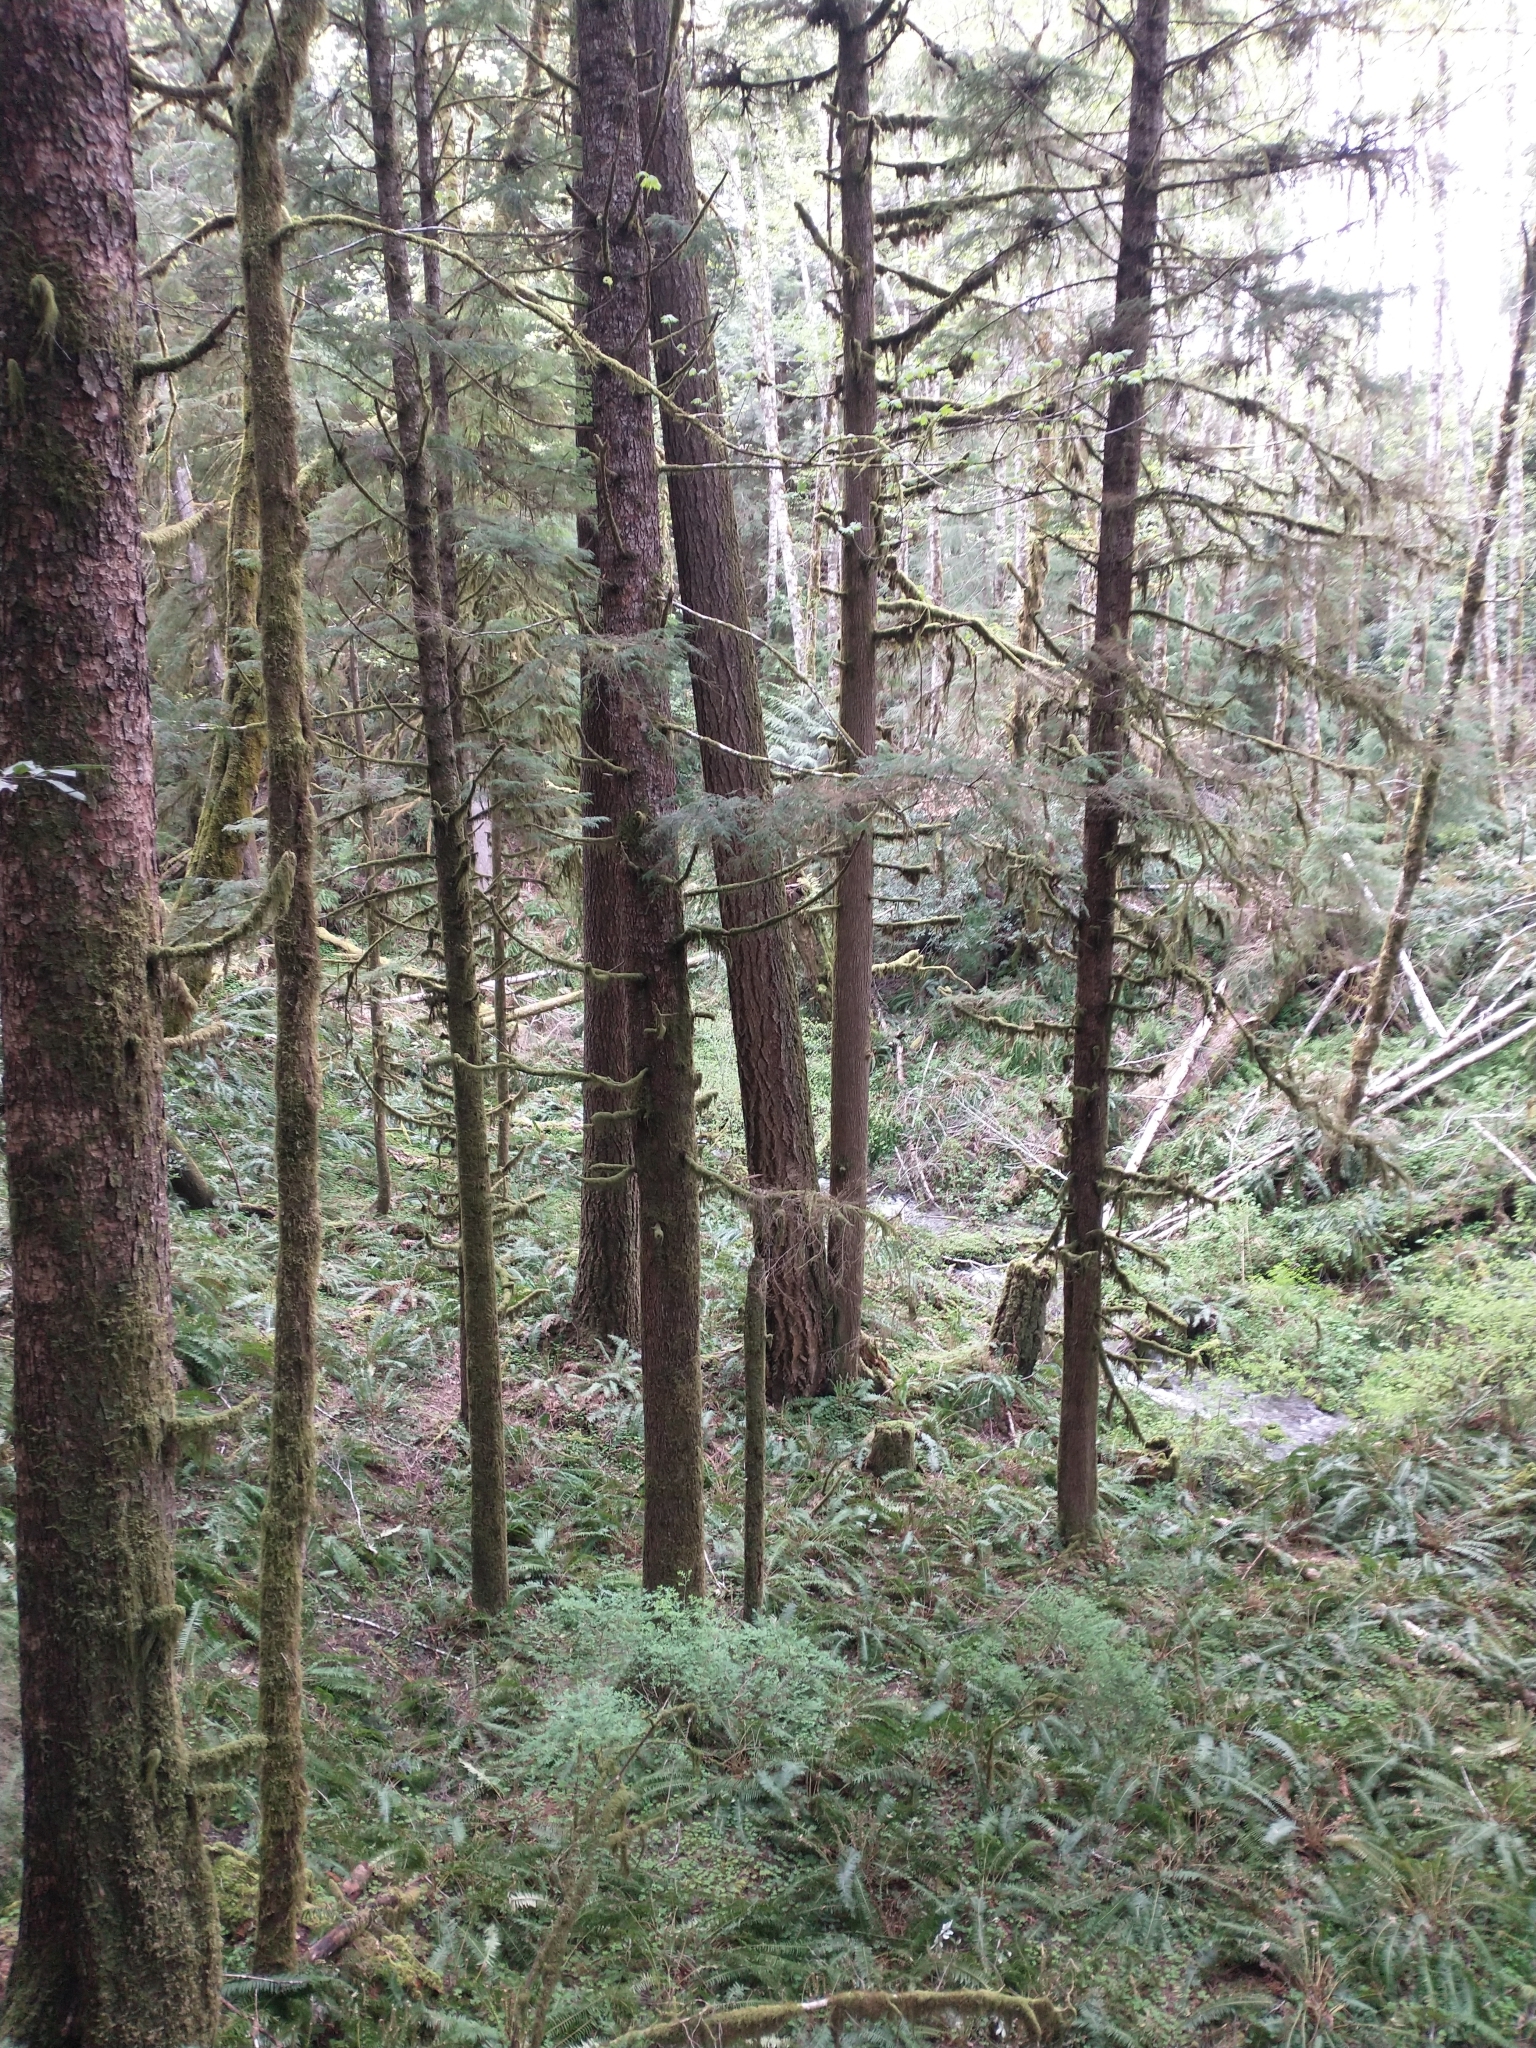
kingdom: Plantae
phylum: Tracheophyta
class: Pinopsida
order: Pinales
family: Pinaceae
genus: Tsuga
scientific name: Tsuga heterophylla
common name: Western hemlock
